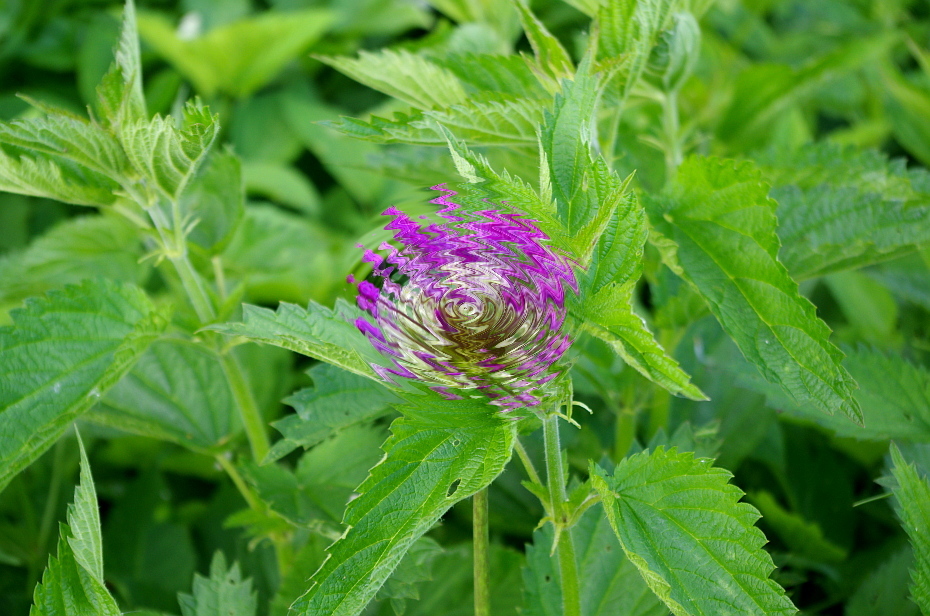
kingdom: Plantae
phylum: Tracheophyta
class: Magnoliopsida
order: Rosales
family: Urticaceae
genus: Urtica
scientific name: Urtica dioica
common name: Common nettle
